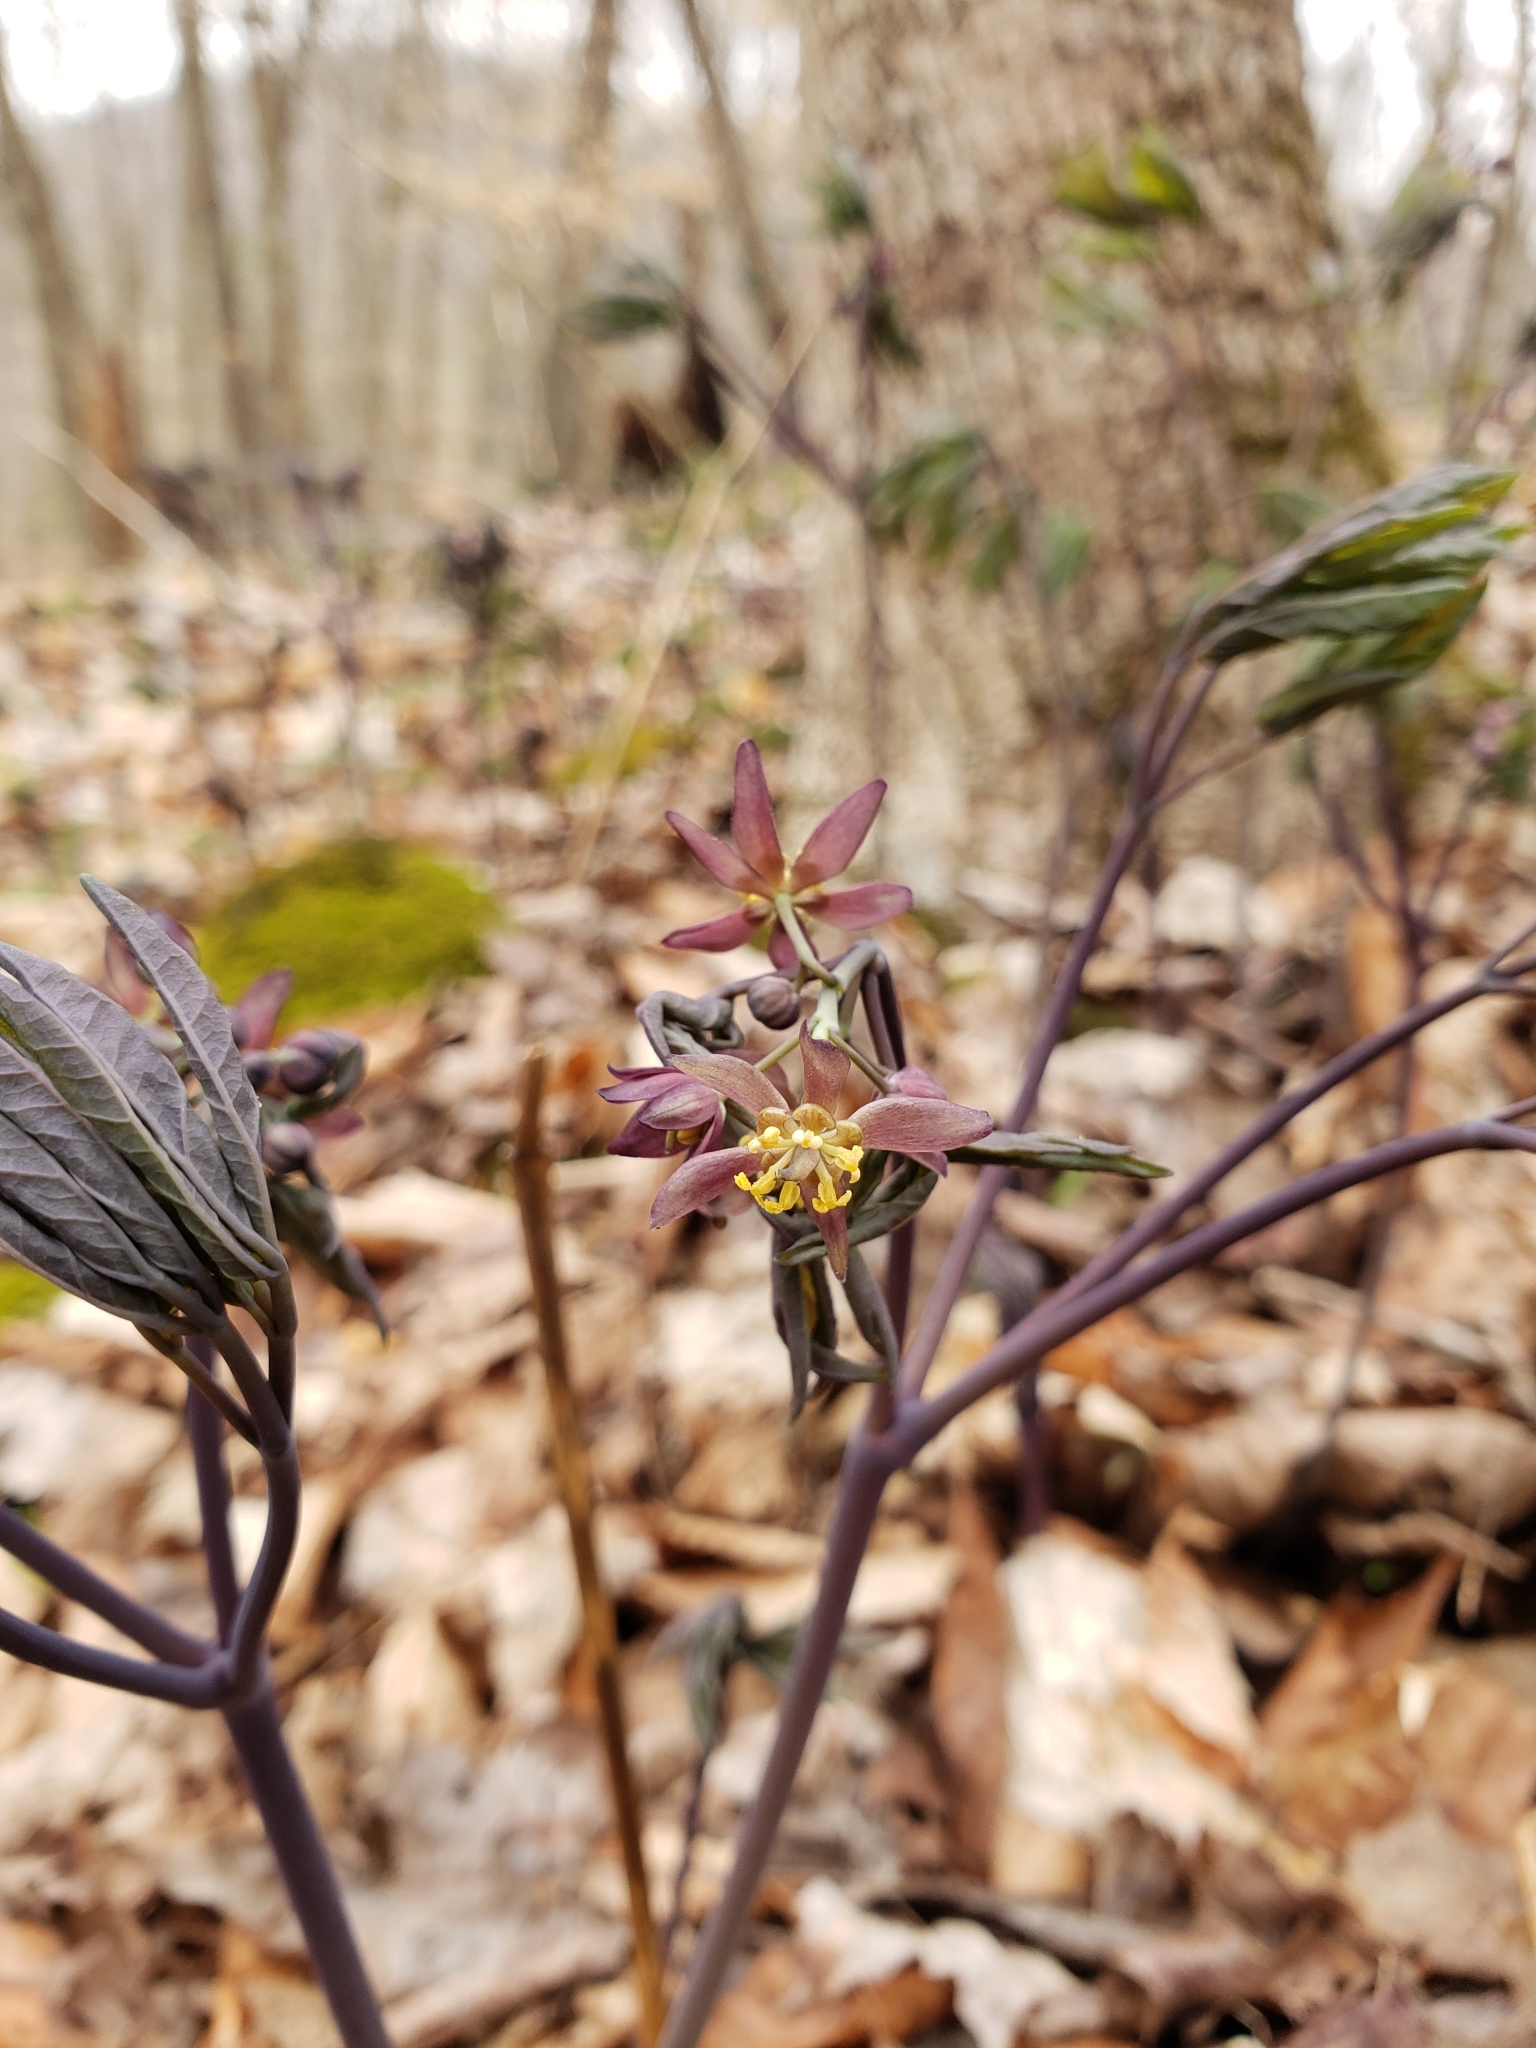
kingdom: Plantae
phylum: Tracheophyta
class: Magnoliopsida
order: Ranunculales
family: Berberidaceae
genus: Caulophyllum
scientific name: Caulophyllum giganteum
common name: Blue cohosh
